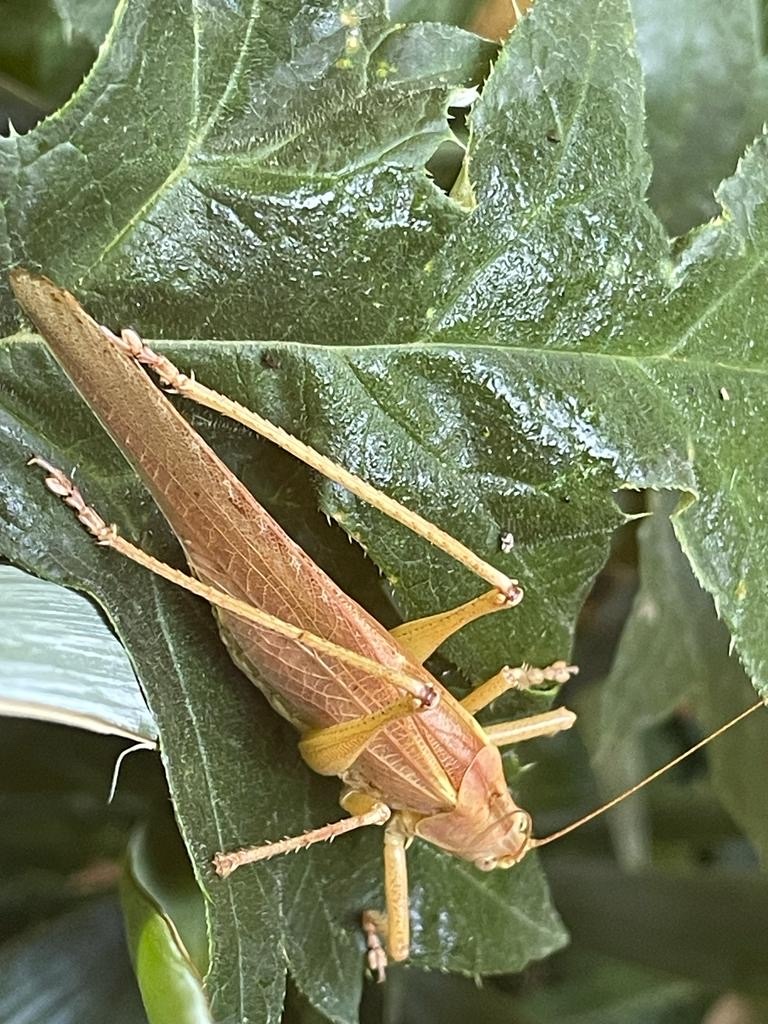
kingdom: Animalia
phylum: Arthropoda
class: Insecta
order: Orthoptera
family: Tettigoniidae
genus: Tettigonia
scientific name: Tettigonia viridissima
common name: Great green bush-cricket
